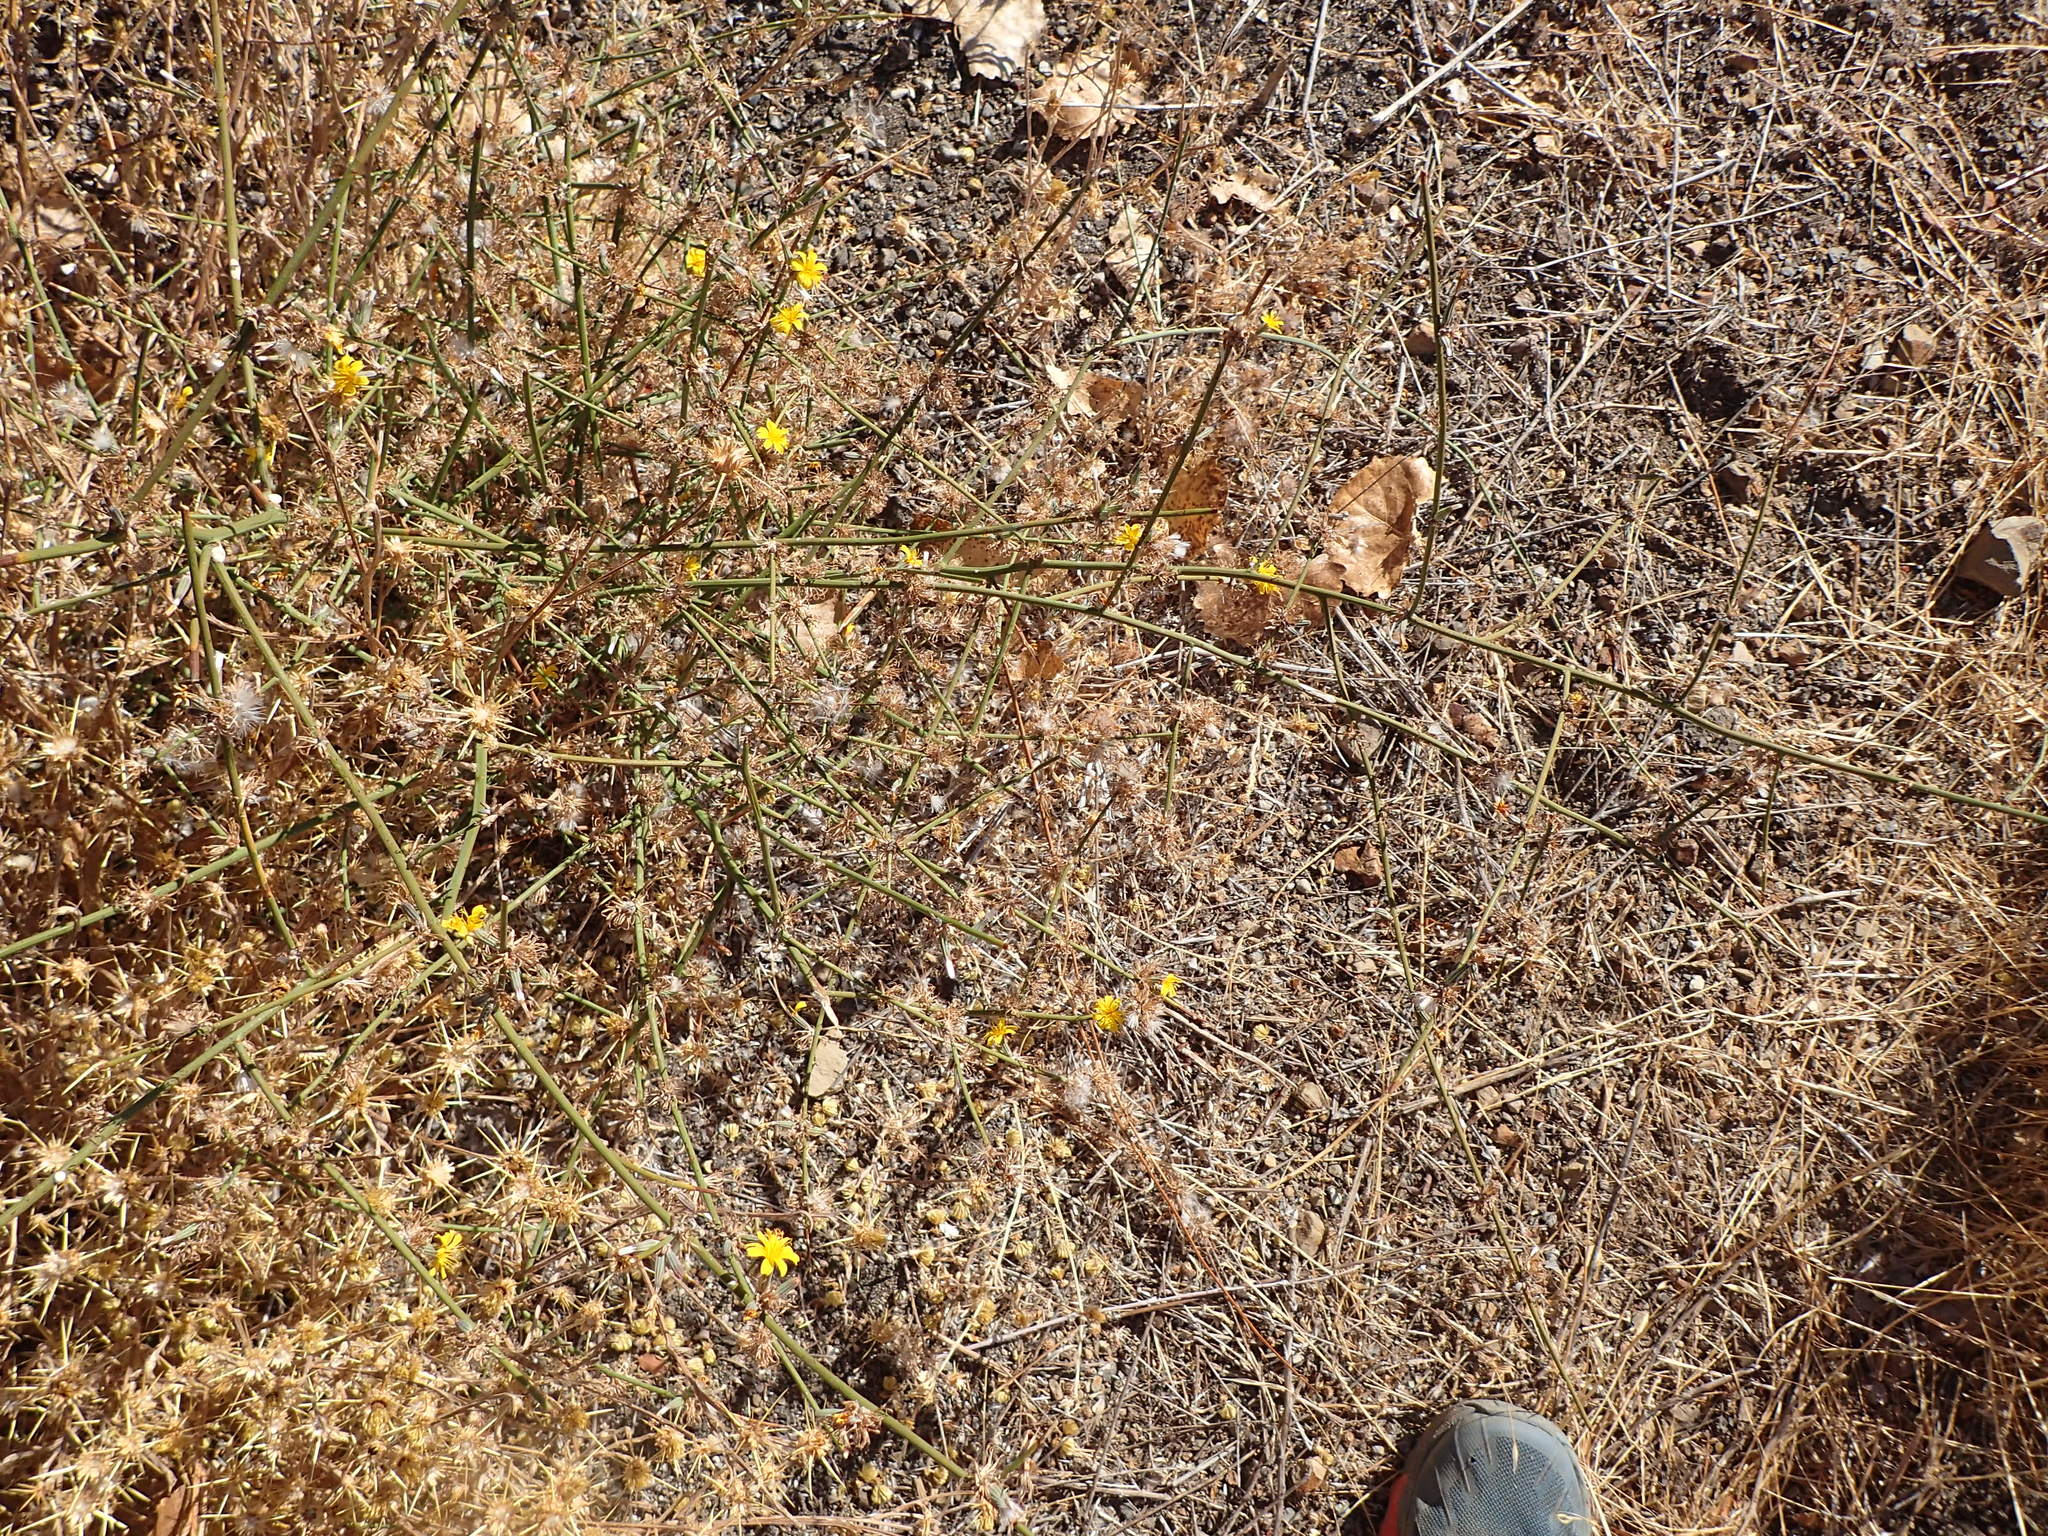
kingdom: Plantae
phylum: Tracheophyta
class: Magnoliopsida
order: Asterales
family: Asteraceae
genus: Chondrilla
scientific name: Chondrilla juncea
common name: Skeleton weed
